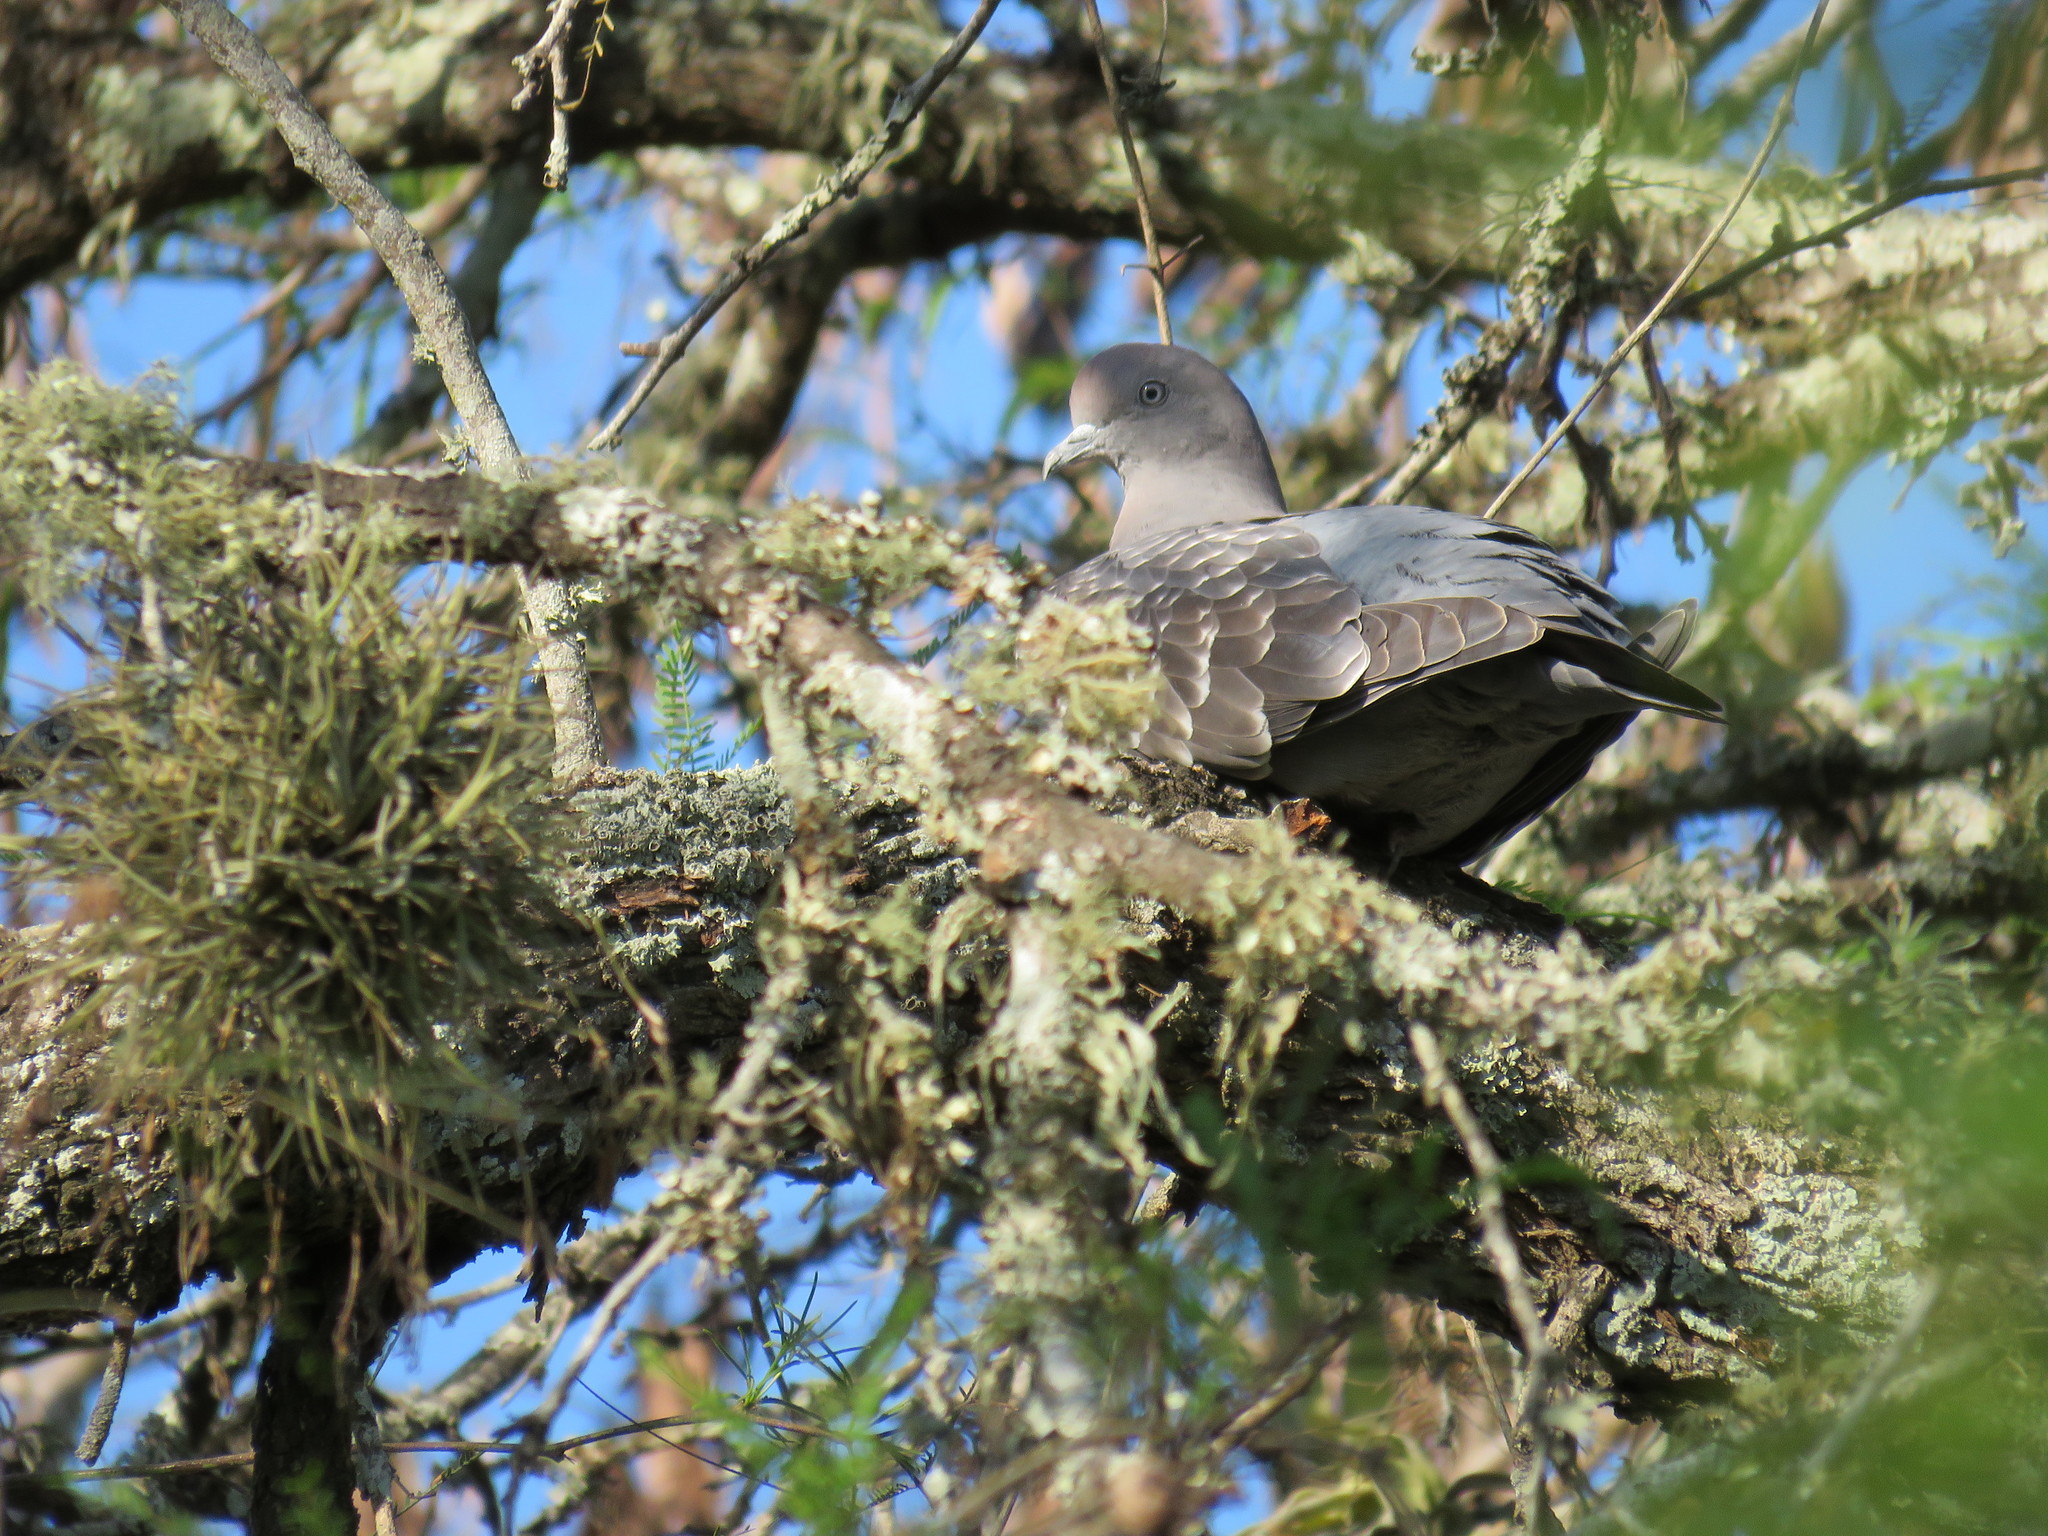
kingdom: Animalia
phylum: Chordata
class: Aves
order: Columbiformes
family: Columbidae
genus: Patagioenas
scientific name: Patagioenas maculosa
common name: Spot-winged pigeon
